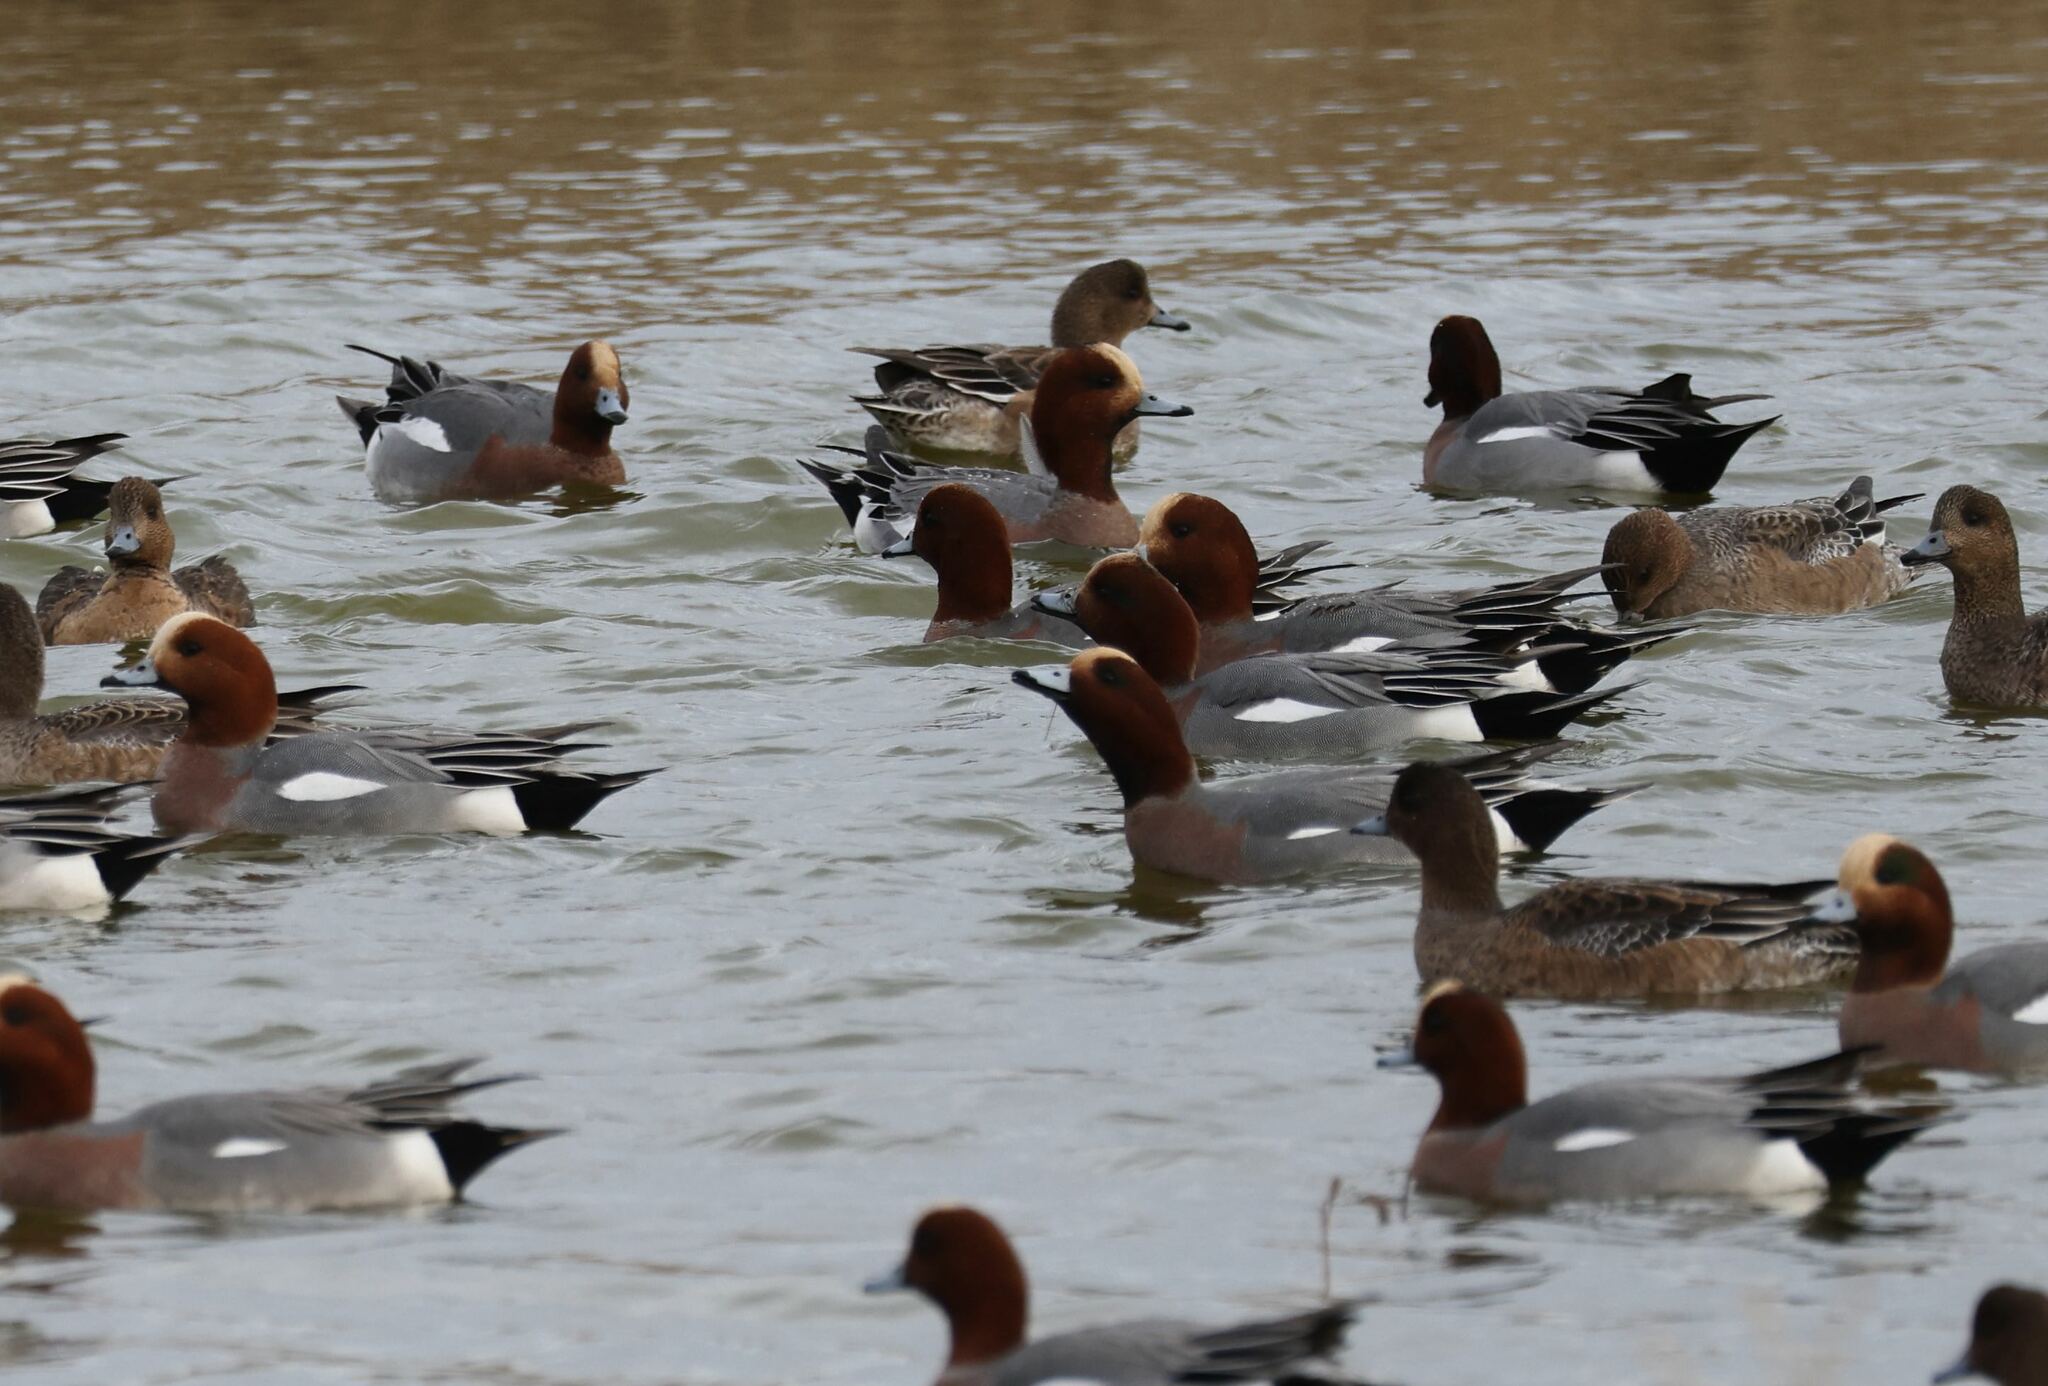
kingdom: Animalia
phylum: Chordata
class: Aves
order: Anseriformes
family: Anatidae
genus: Mareca
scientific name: Mareca penelope
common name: Eurasian wigeon
